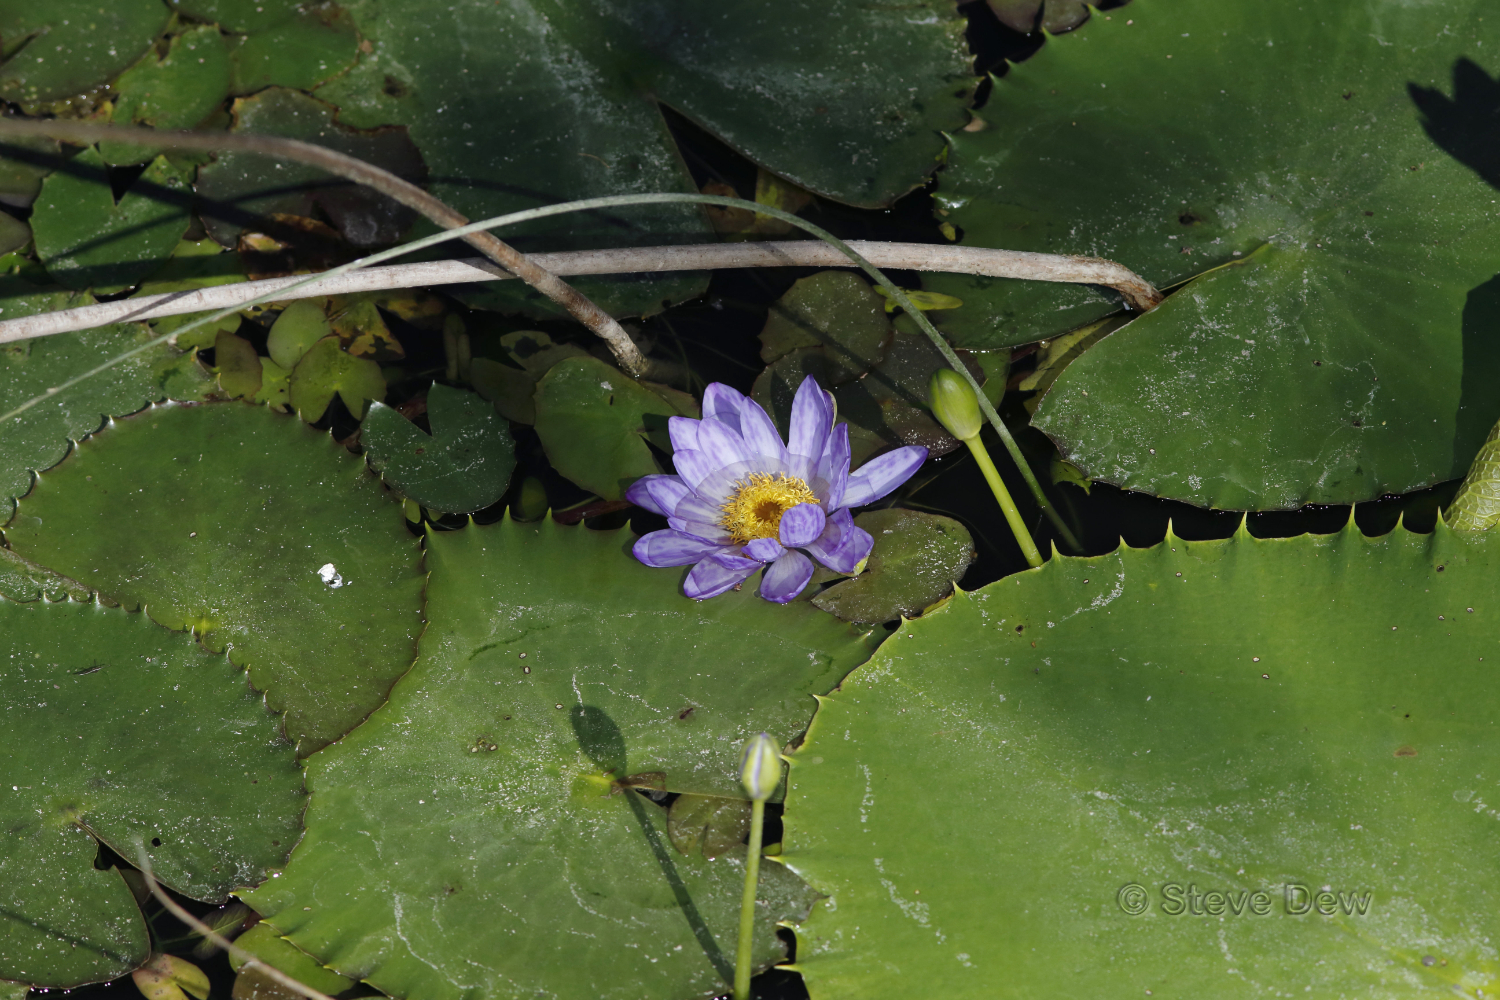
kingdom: Plantae
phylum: Tracheophyta
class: Magnoliopsida
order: Nymphaeales
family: Nymphaeaceae
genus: Nymphaea
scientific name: Nymphaea macrosperma
